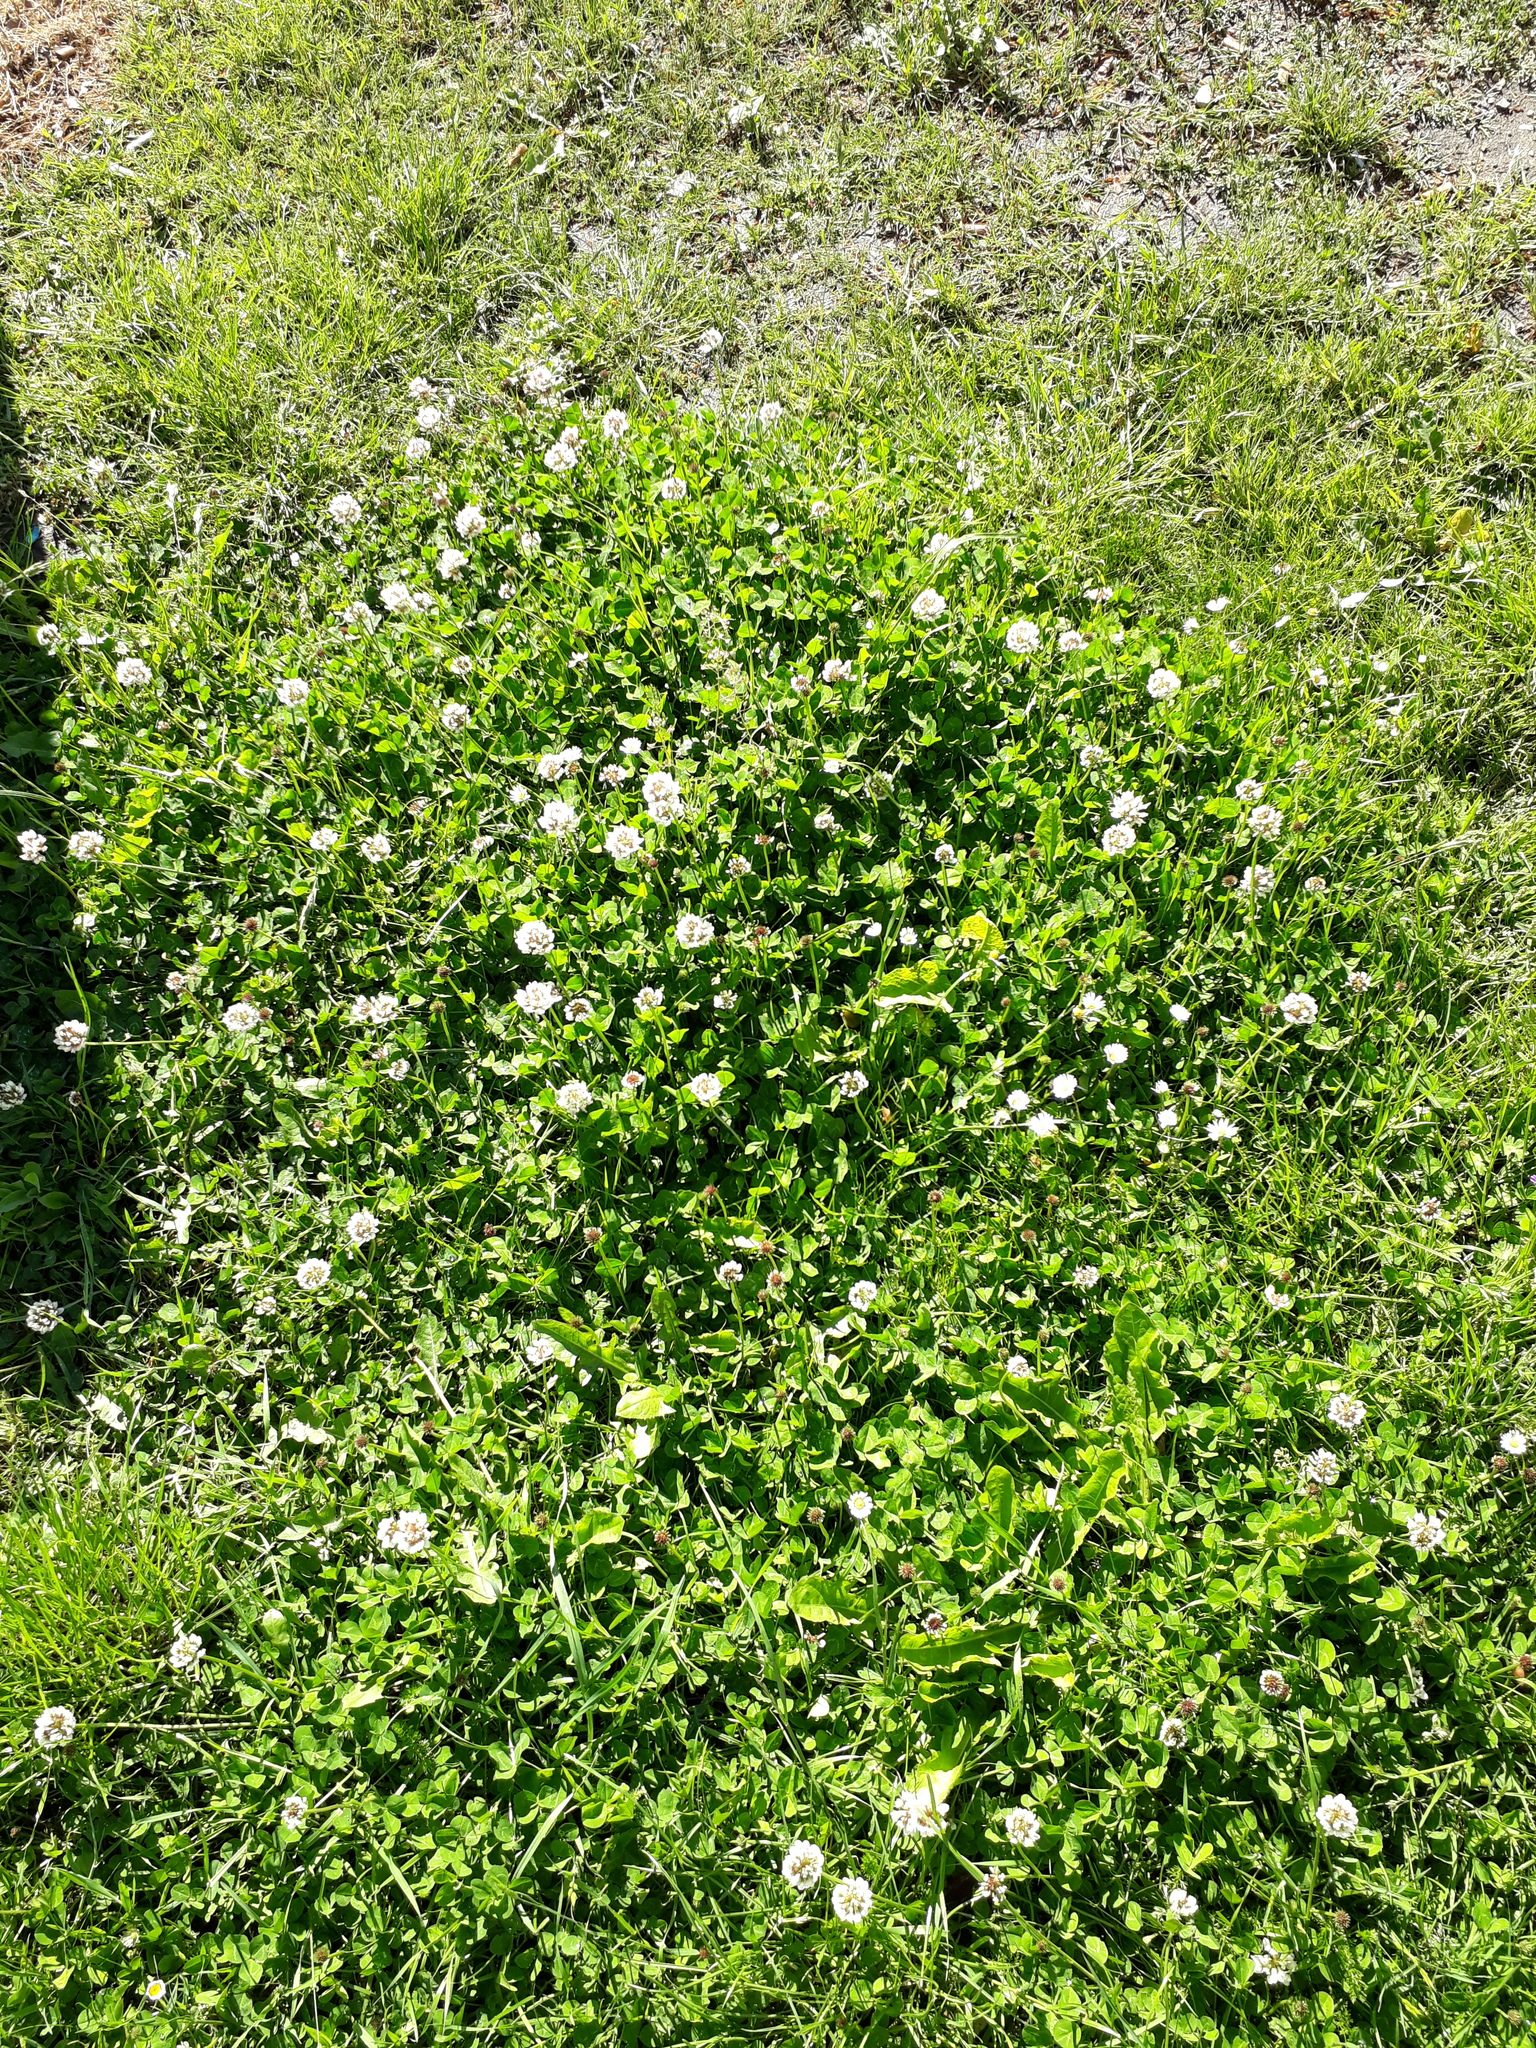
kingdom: Plantae
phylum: Tracheophyta
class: Magnoliopsida
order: Fabales
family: Fabaceae
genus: Trifolium
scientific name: Trifolium repens
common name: White clover
